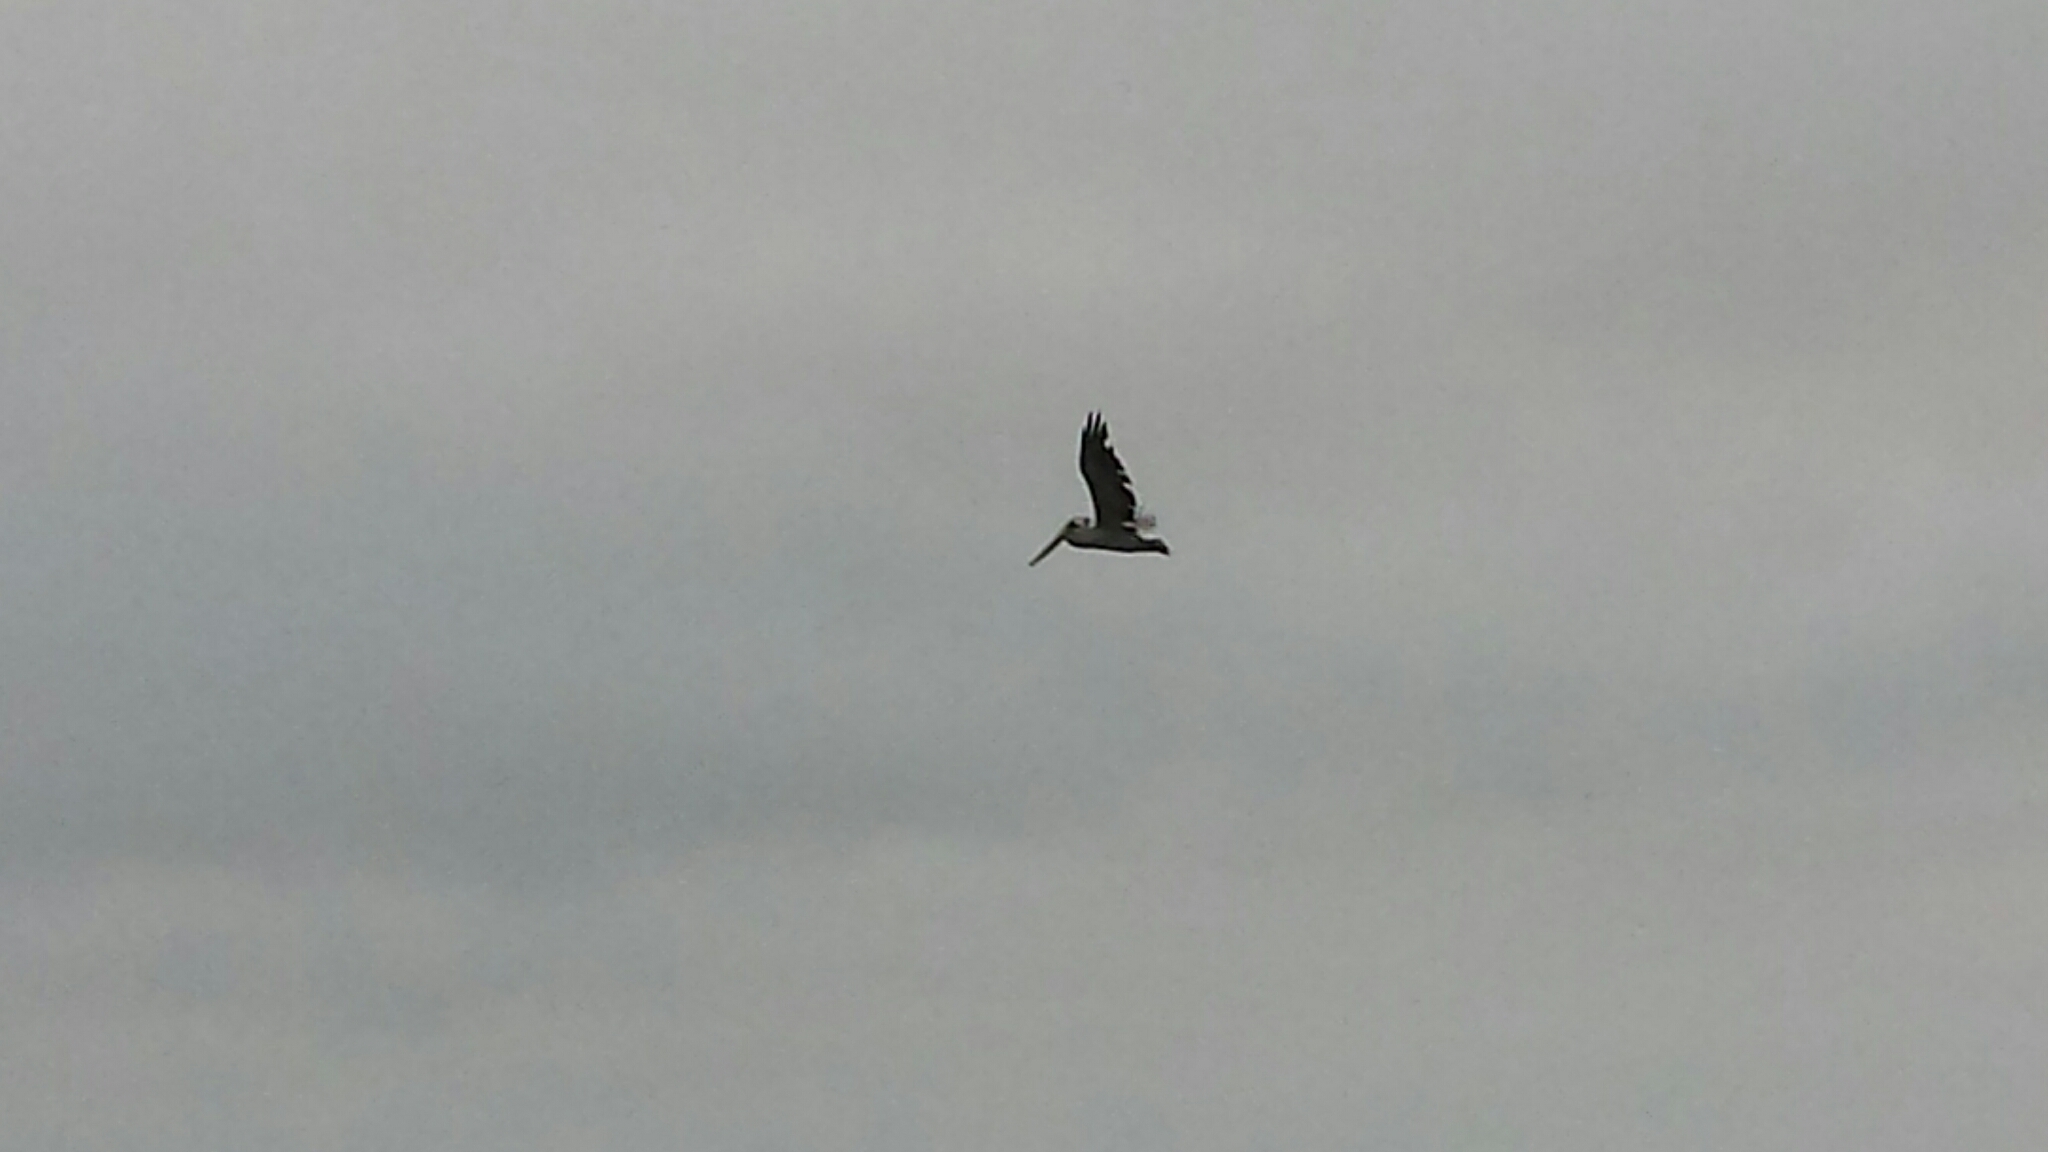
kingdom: Animalia
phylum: Chordata
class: Aves
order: Pelecaniformes
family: Pelecanidae
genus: Pelecanus
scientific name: Pelecanus occidentalis
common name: Brown pelican
